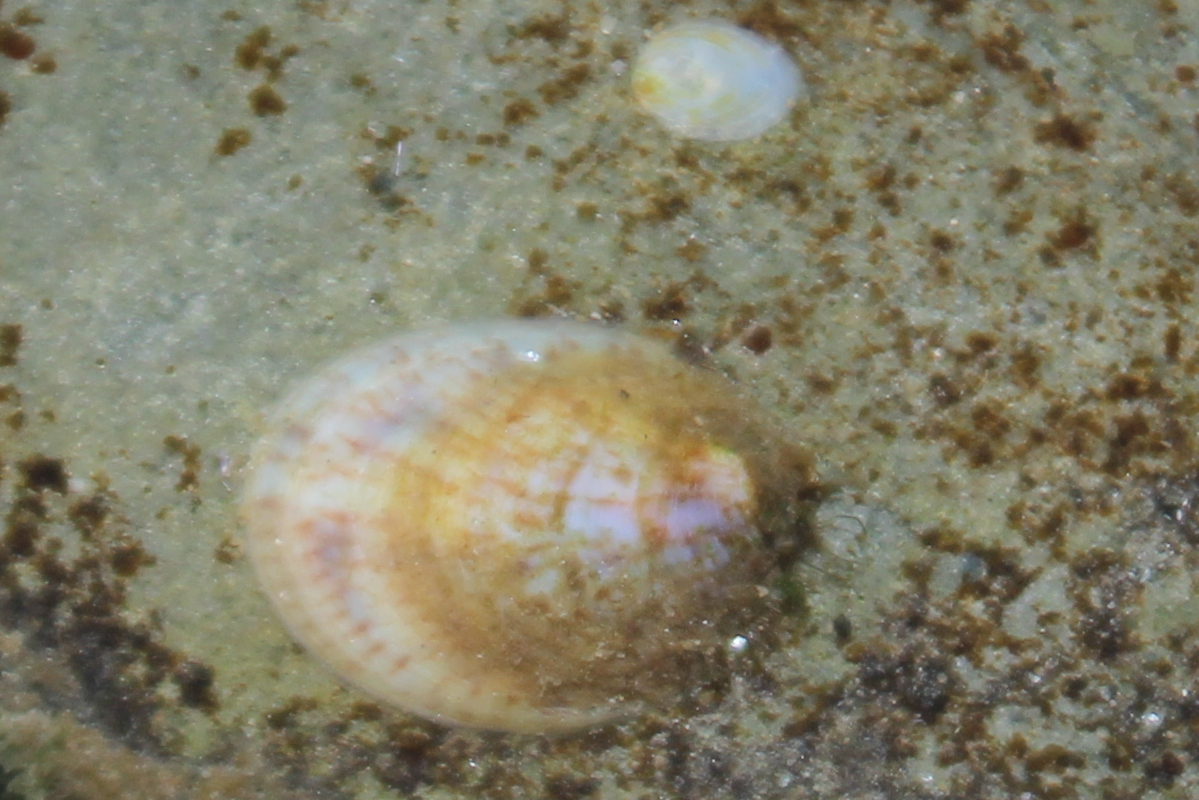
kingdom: Animalia
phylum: Mollusca
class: Gastropoda
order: Littorinimorpha
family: Calyptraeidae
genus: Crepidula
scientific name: Crepidula fornicata
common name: Slipper limpet
